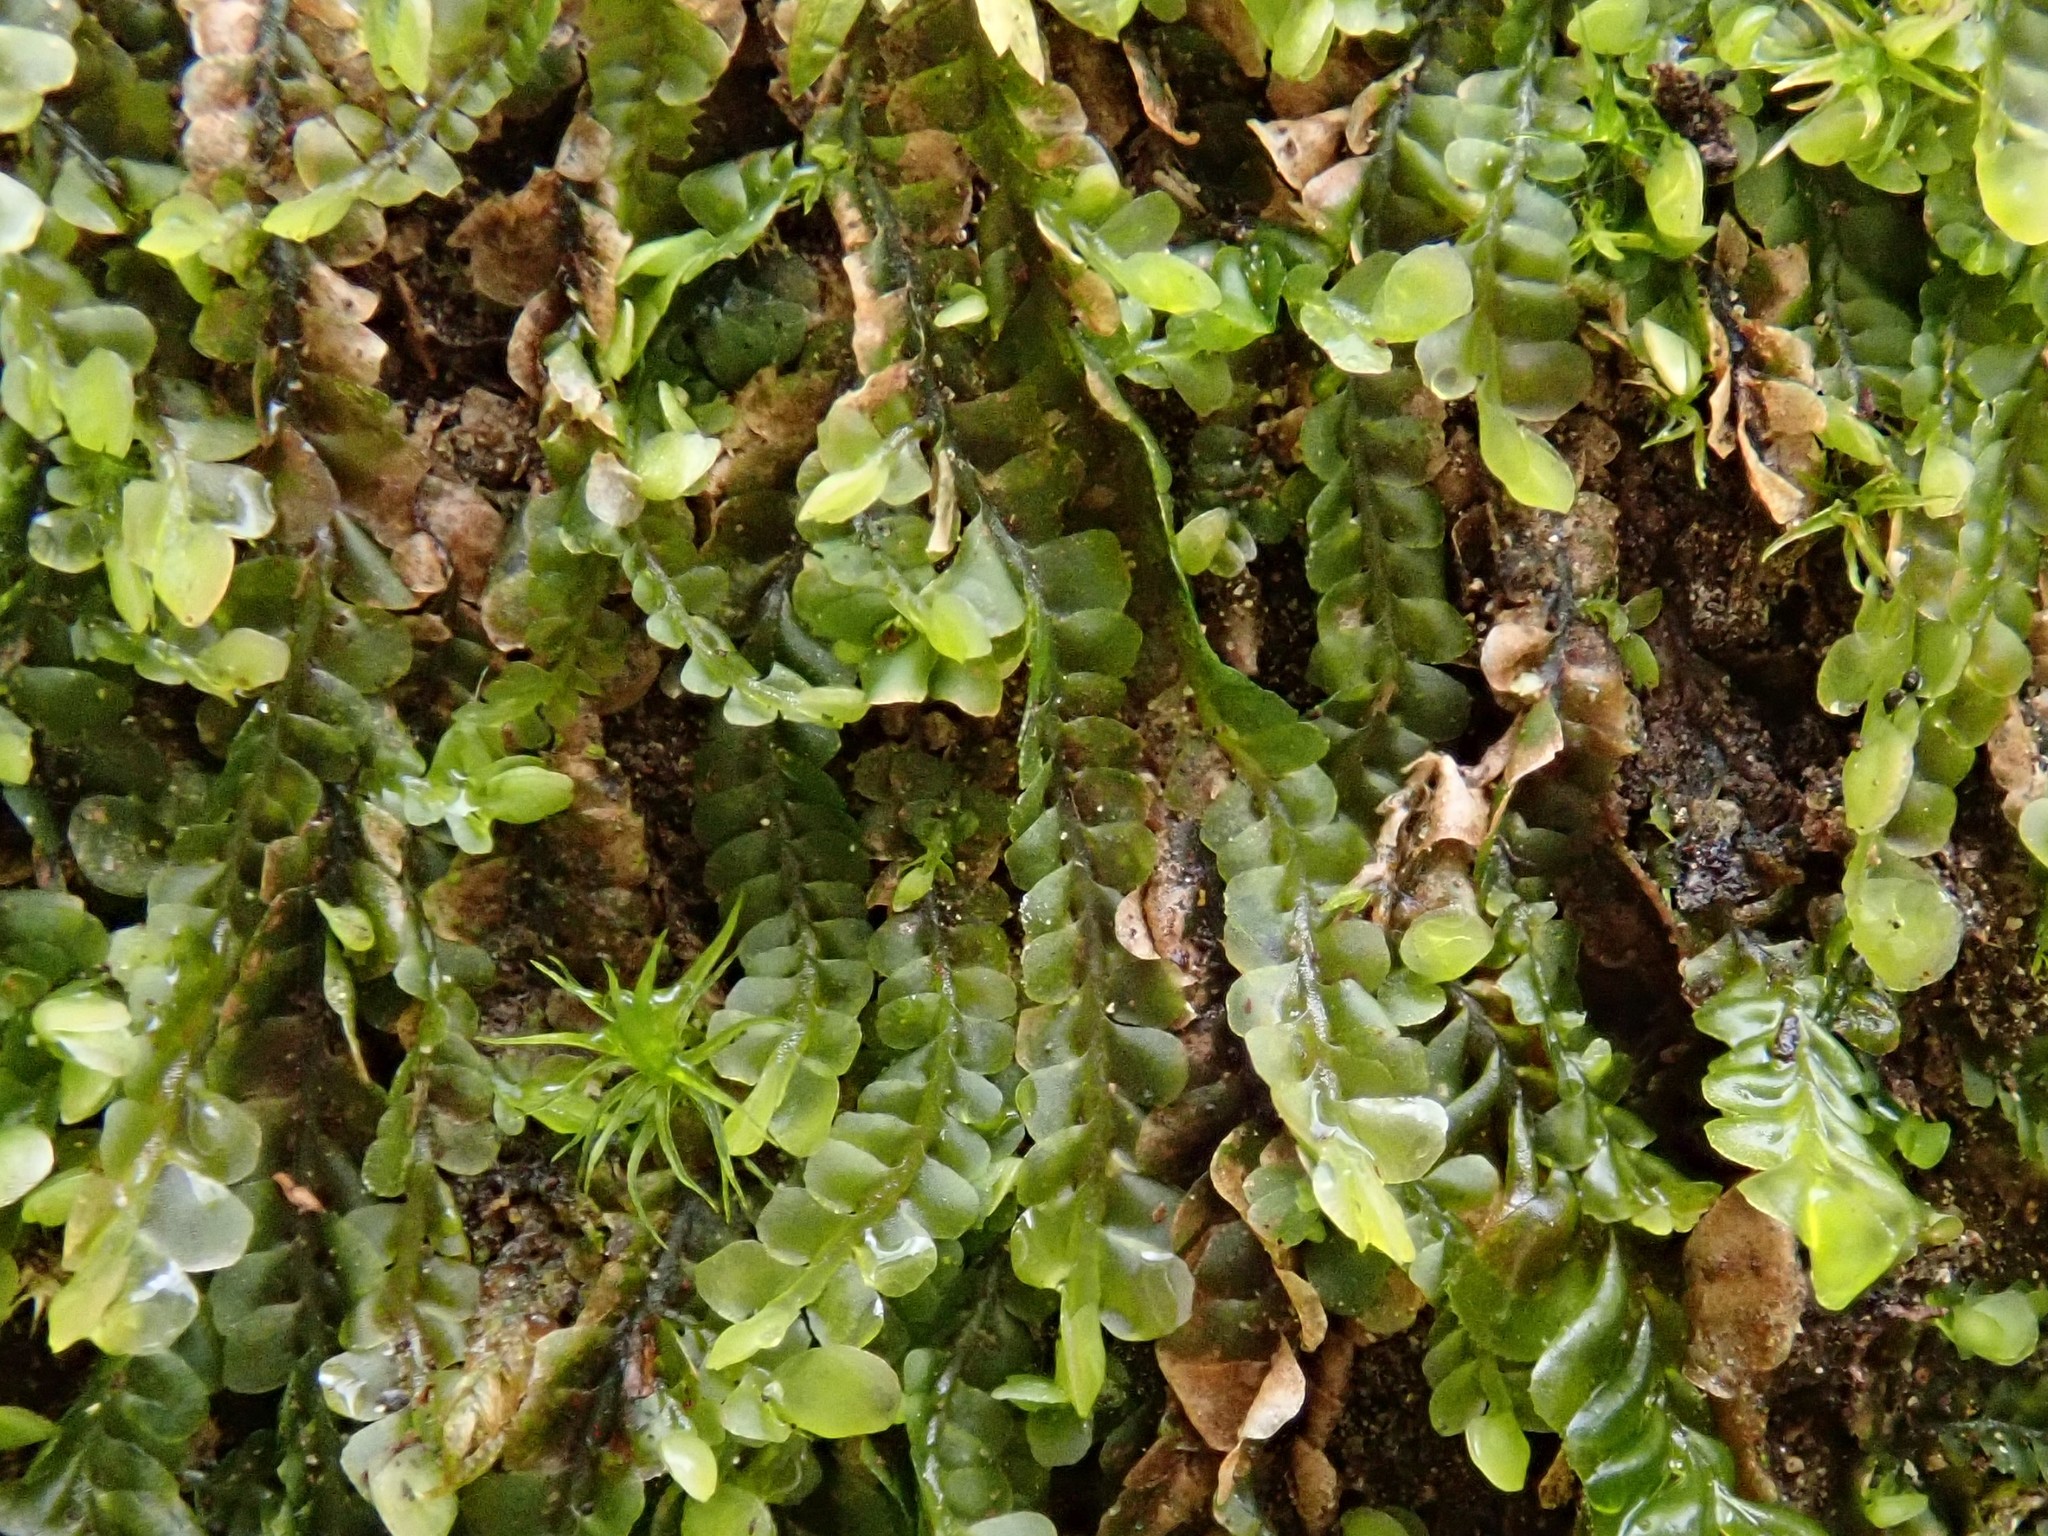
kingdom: Plantae
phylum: Marchantiophyta
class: Jungermanniopsida
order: Jungermanniales
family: Jungermanniaceae
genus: Jungermannia
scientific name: Jungermannia atrovirens
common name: Dark-green flapwort
